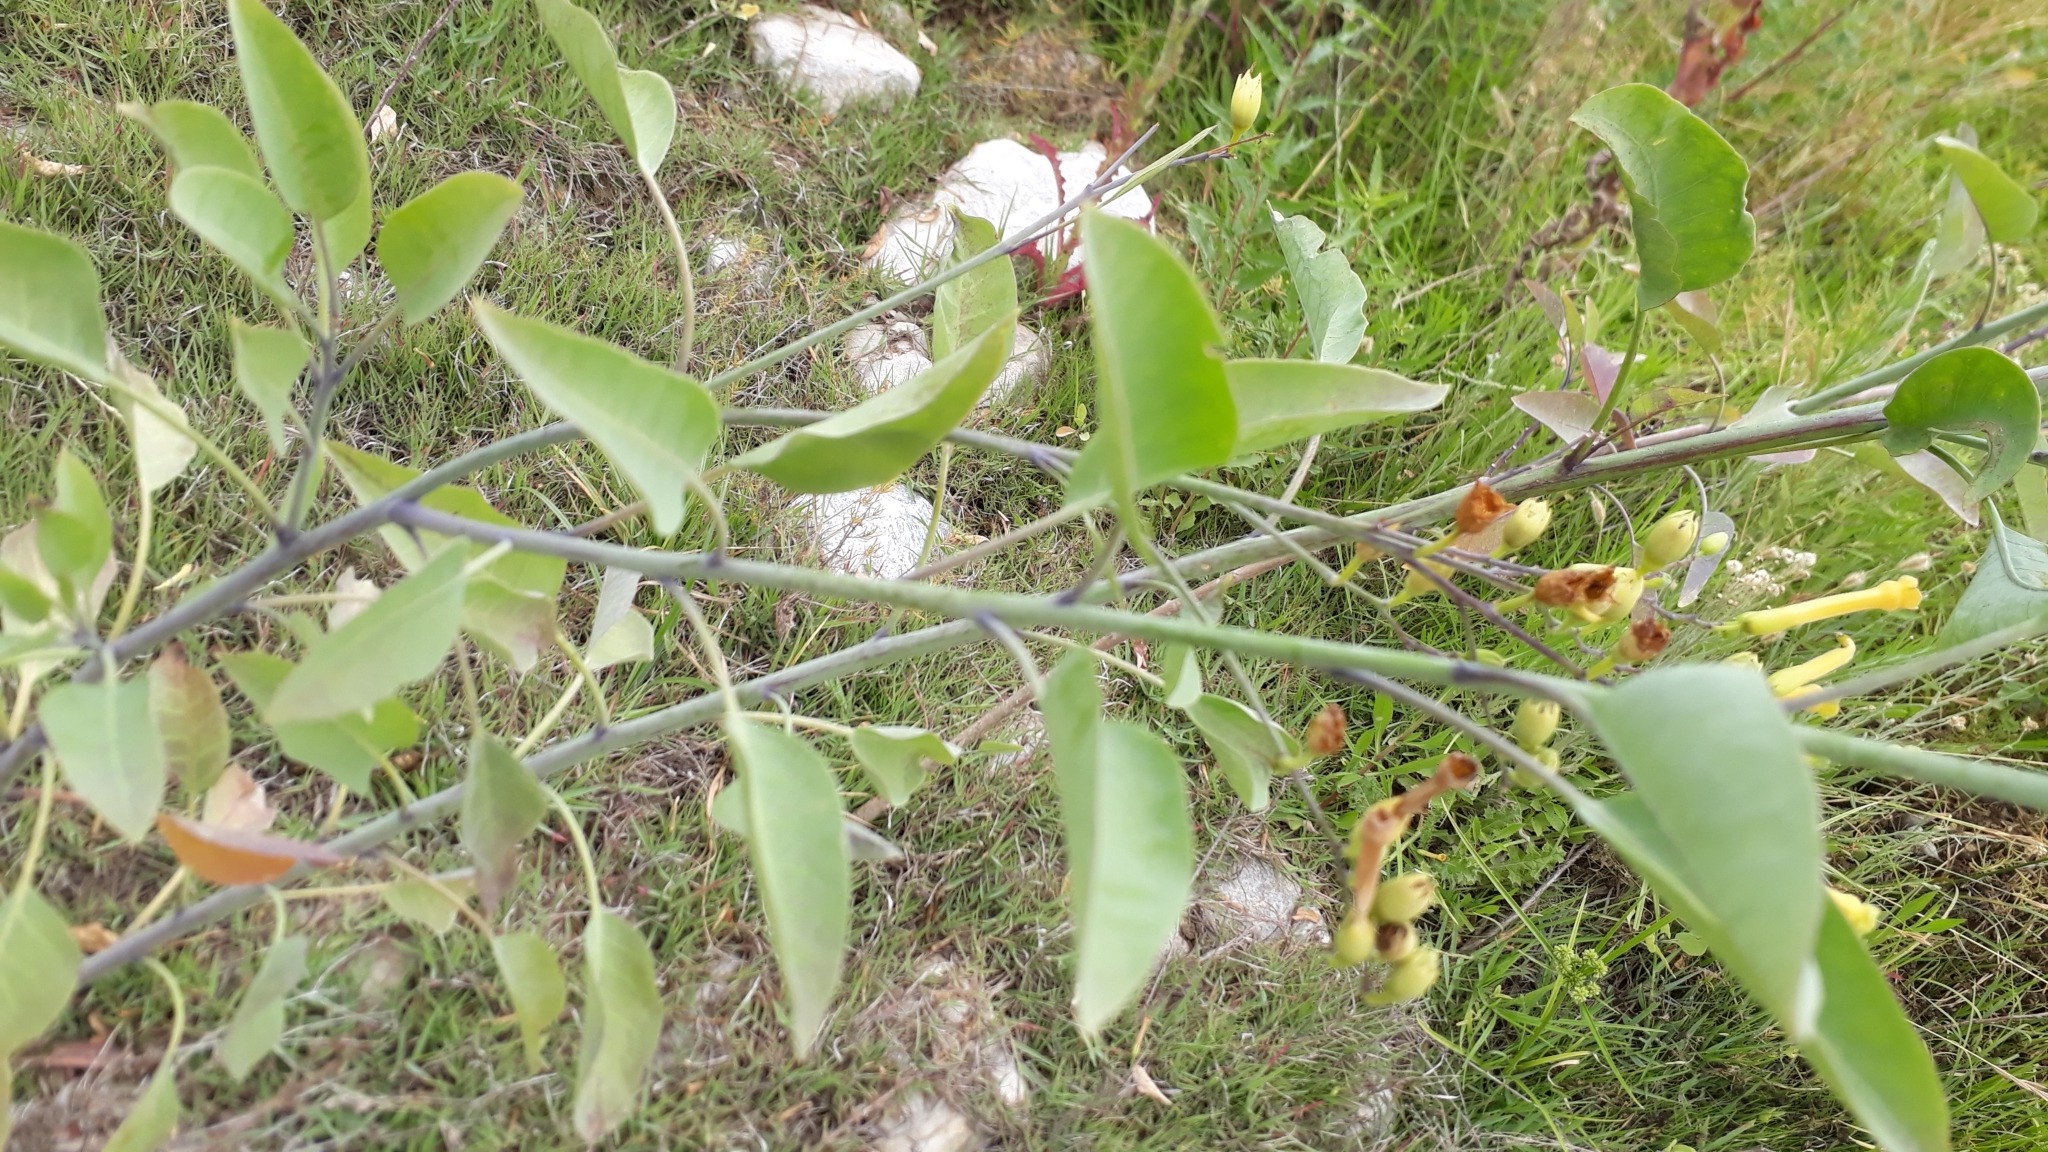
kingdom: Plantae
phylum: Tracheophyta
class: Magnoliopsida
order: Solanales
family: Solanaceae
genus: Nicotiana
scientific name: Nicotiana glauca
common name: Tree tobacco
